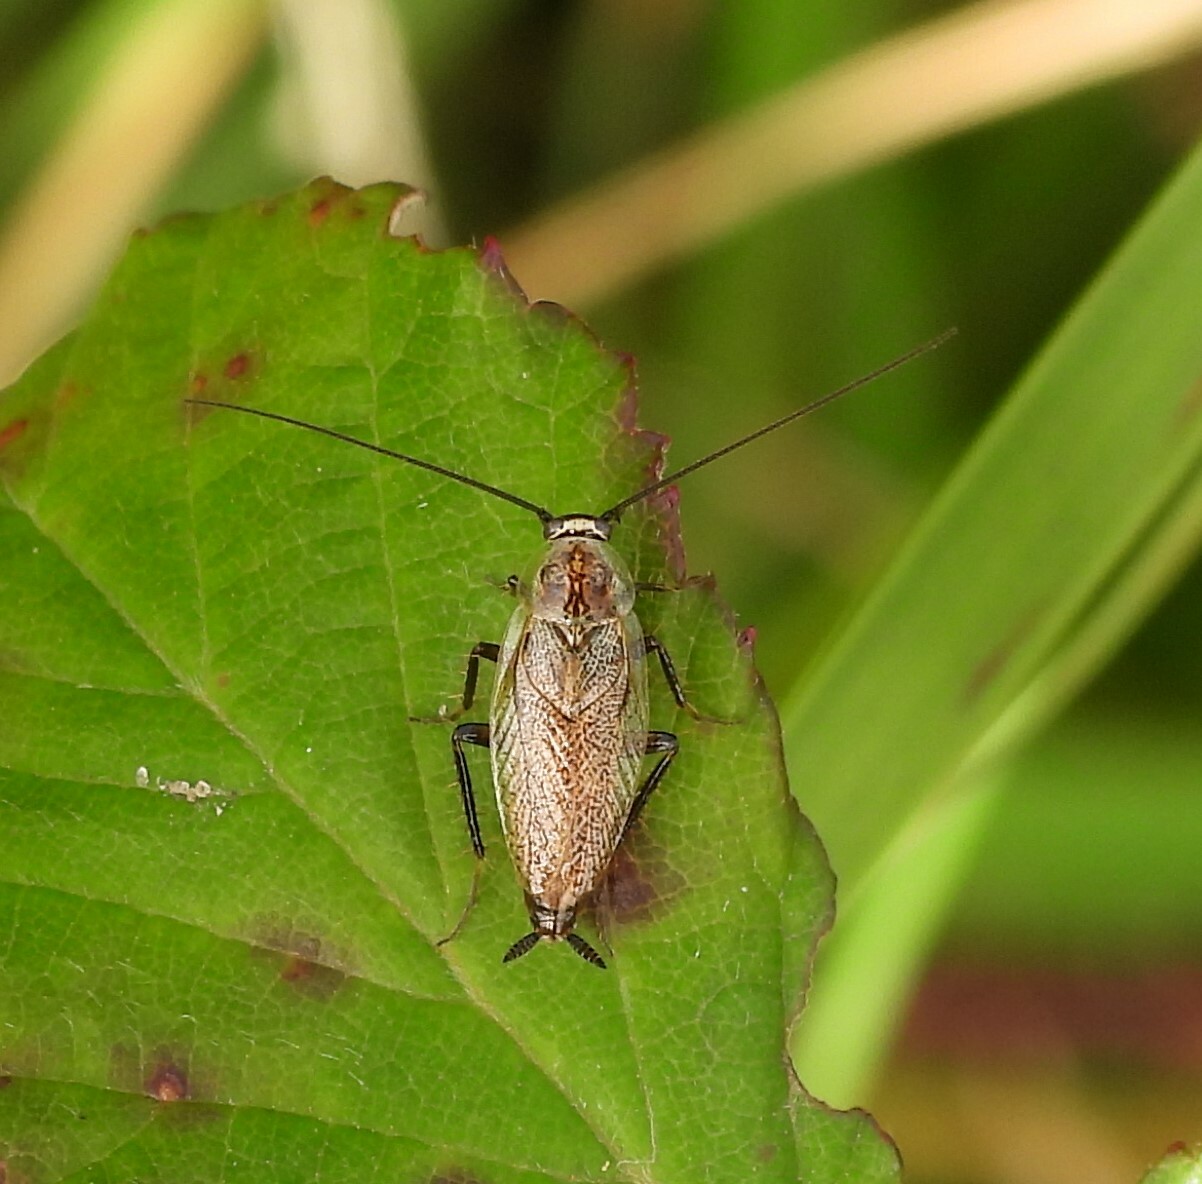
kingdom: Animalia
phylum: Arthropoda
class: Insecta
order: Blattodea
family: Ectobiidae
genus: Capraiellus
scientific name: Capraiellus panzeri
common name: Lesser cockroach
